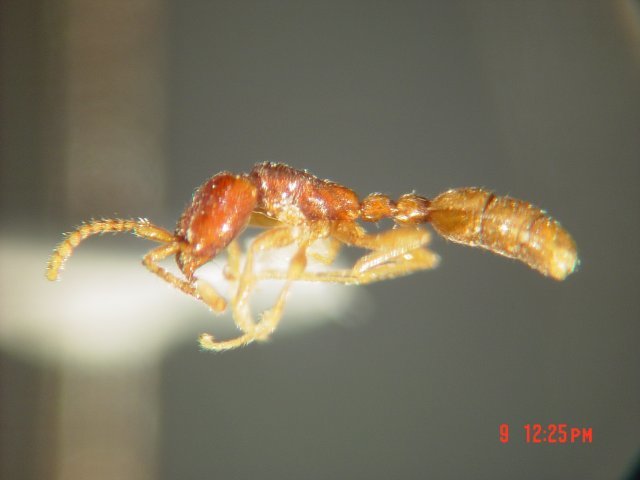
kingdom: Animalia
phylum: Arthropoda
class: Insecta
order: Hymenoptera
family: Formicidae
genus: Leptanilloides
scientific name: Leptanilloides legionaria
